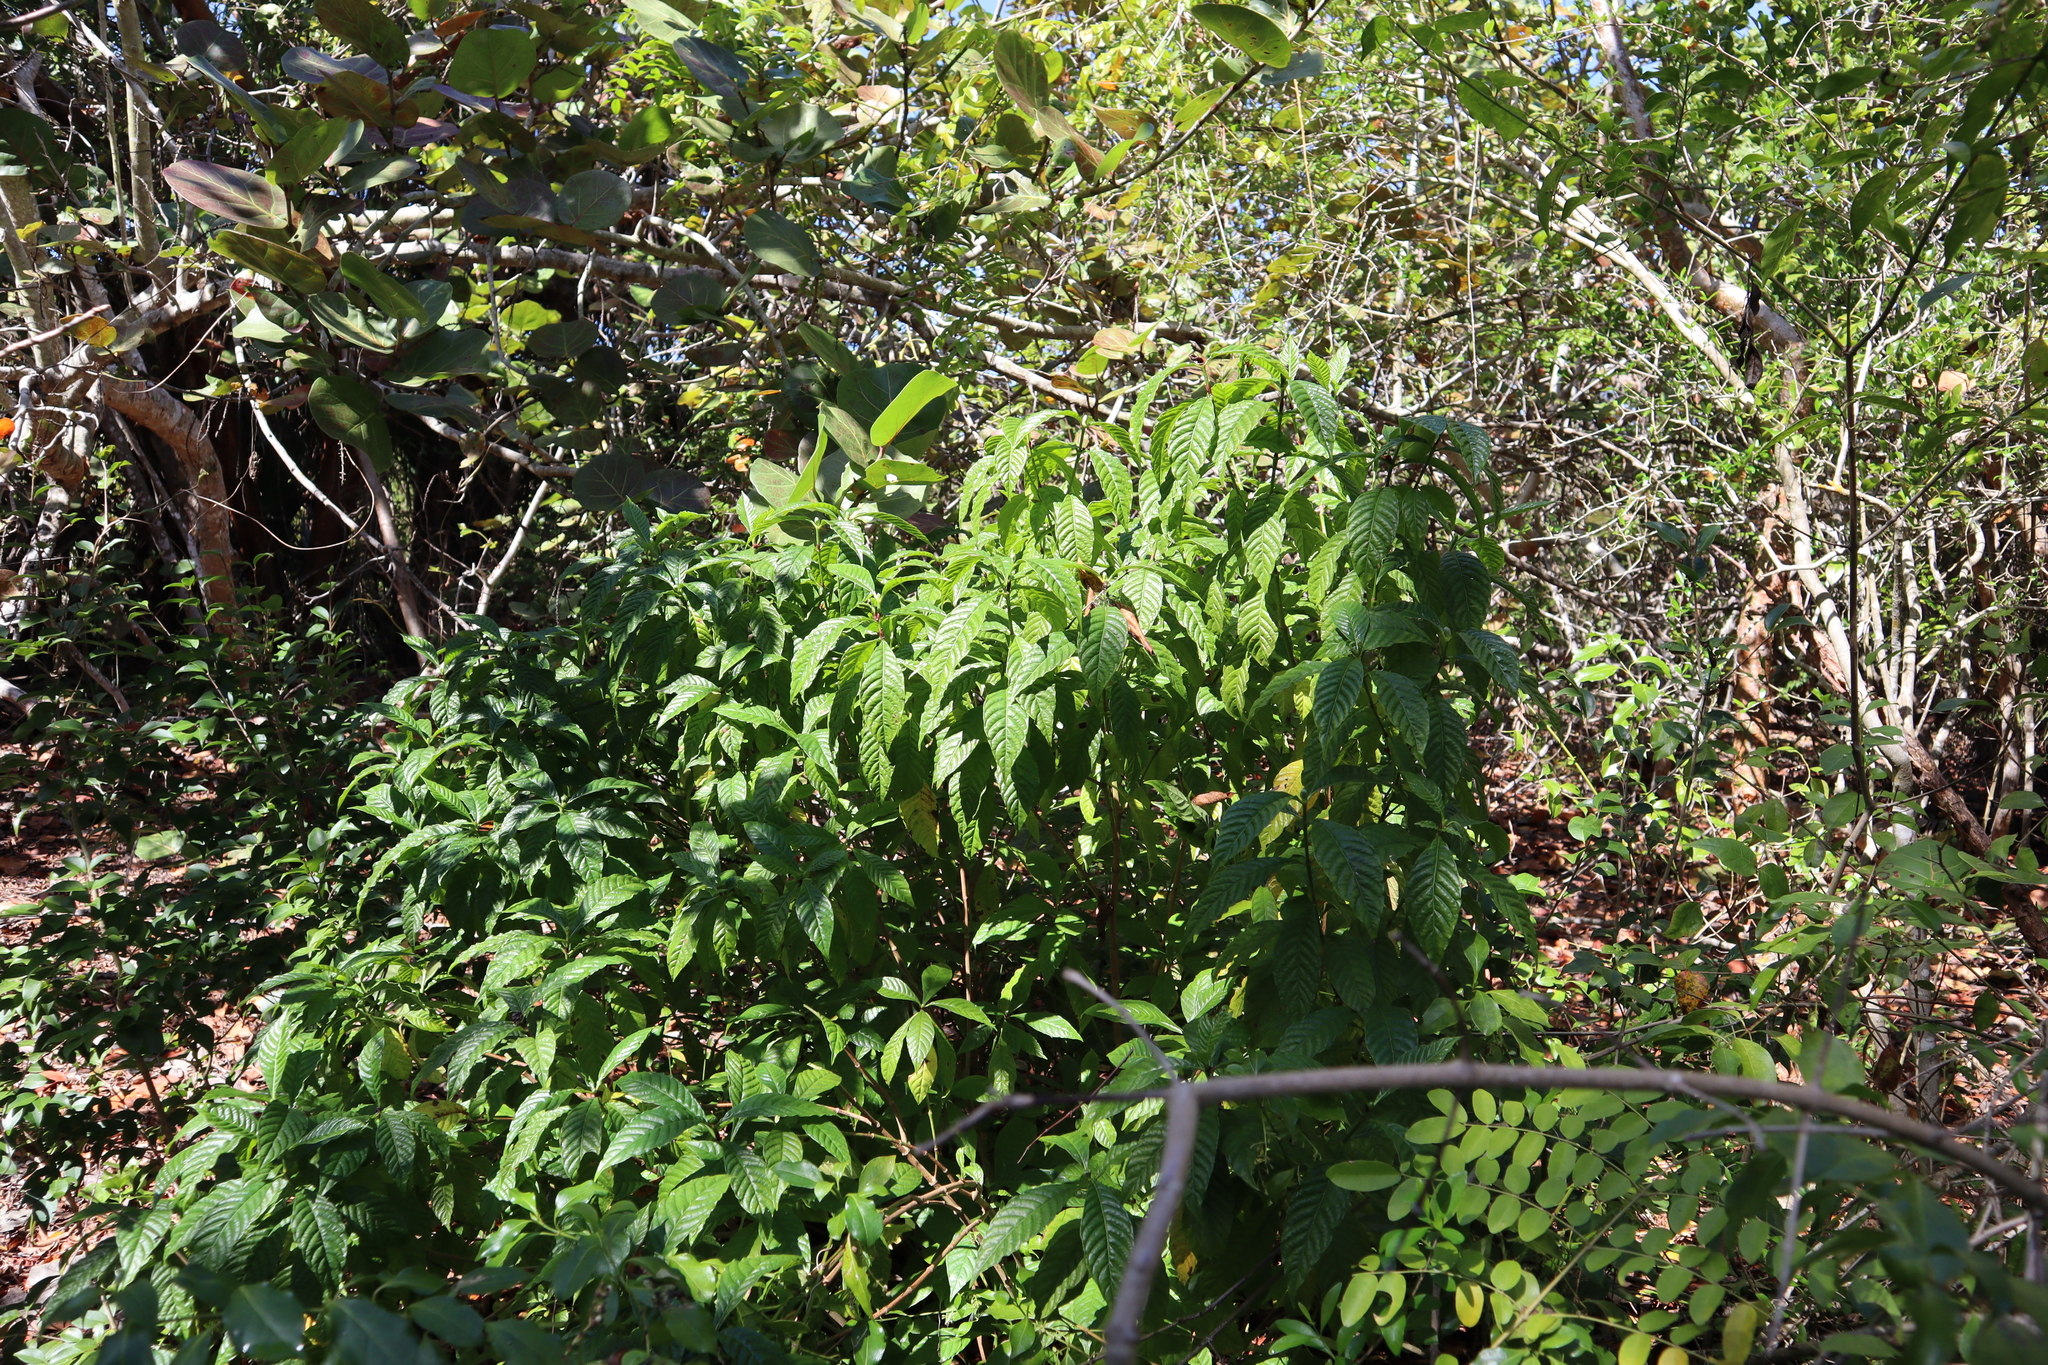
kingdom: Plantae
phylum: Tracheophyta
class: Magnoliopsida
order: Gentianales
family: Rubiaceae
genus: Psychotria
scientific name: Psychotria nervosa
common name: Bastard cankerberry
